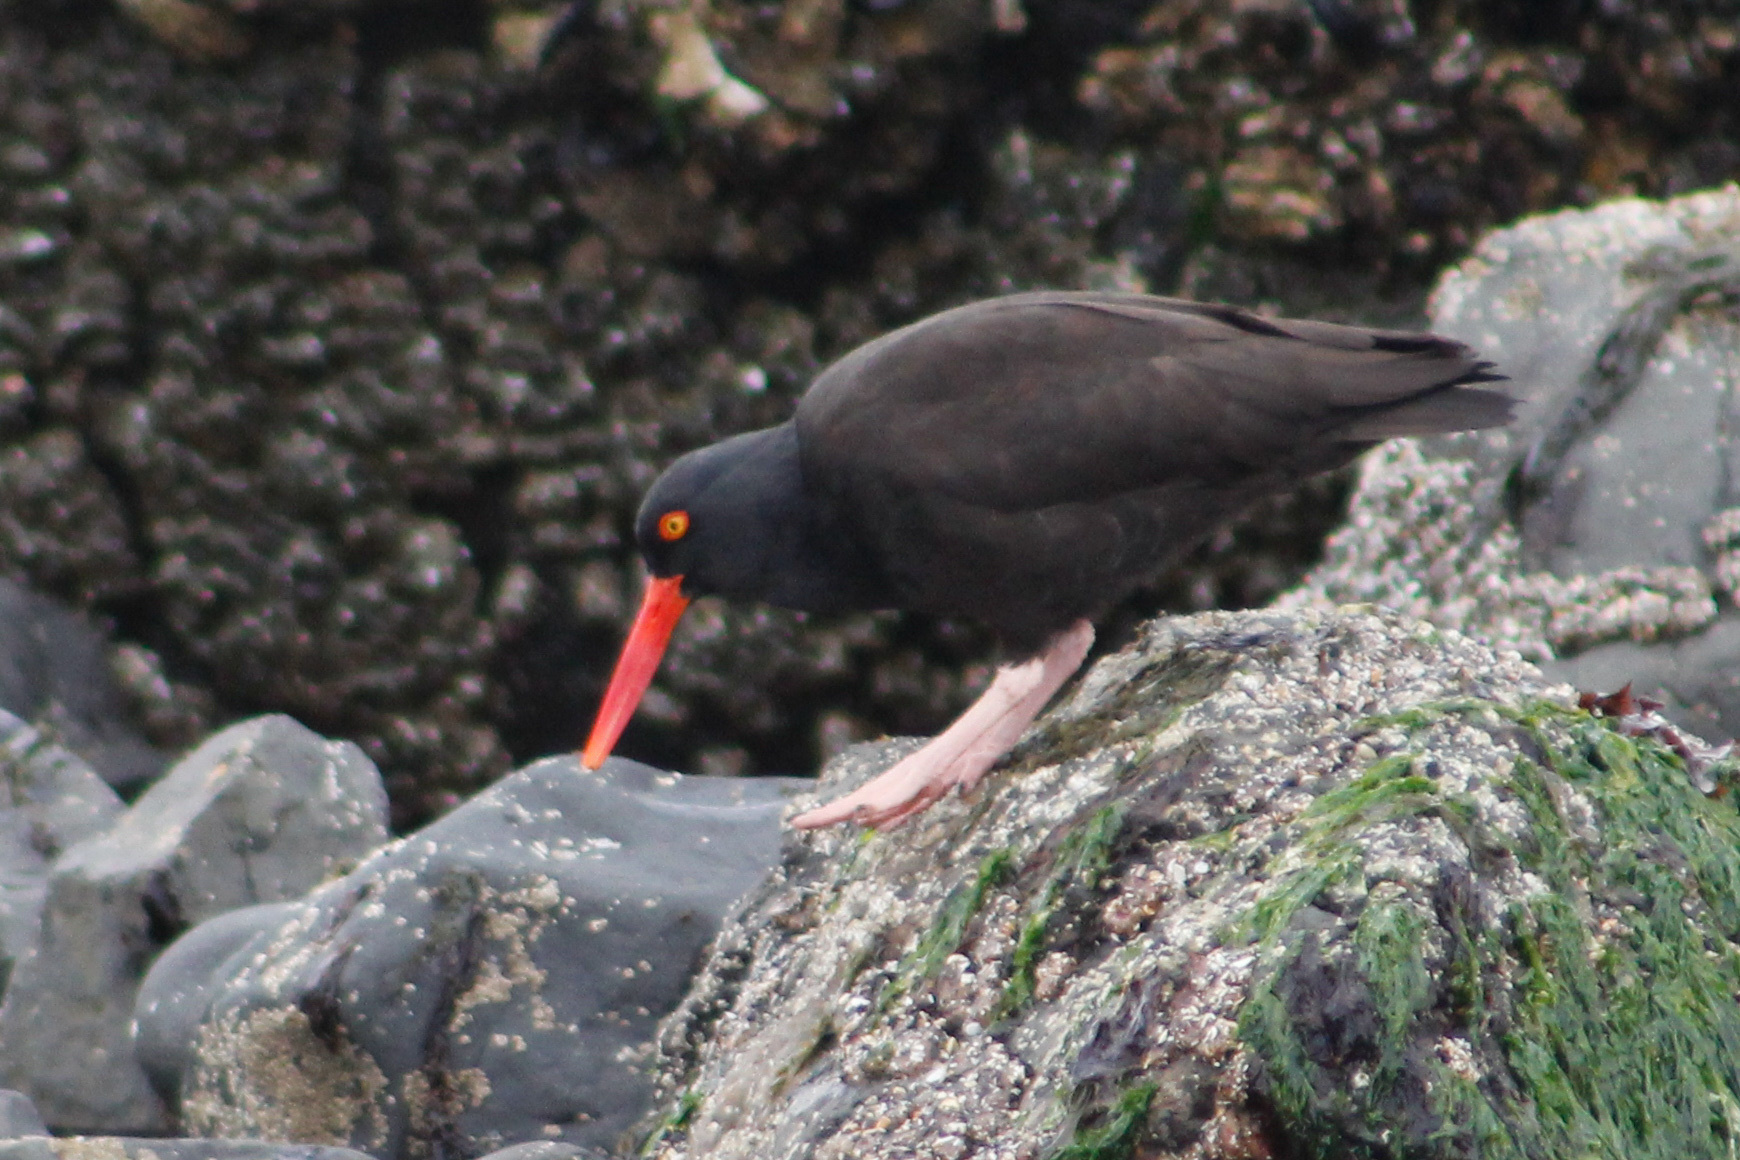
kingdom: Animalia
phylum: Chordata
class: Aves
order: Charadriiformes
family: Haematopodidae
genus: Haematopus
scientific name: Haematopus bachmani
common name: Black oystercatcher
